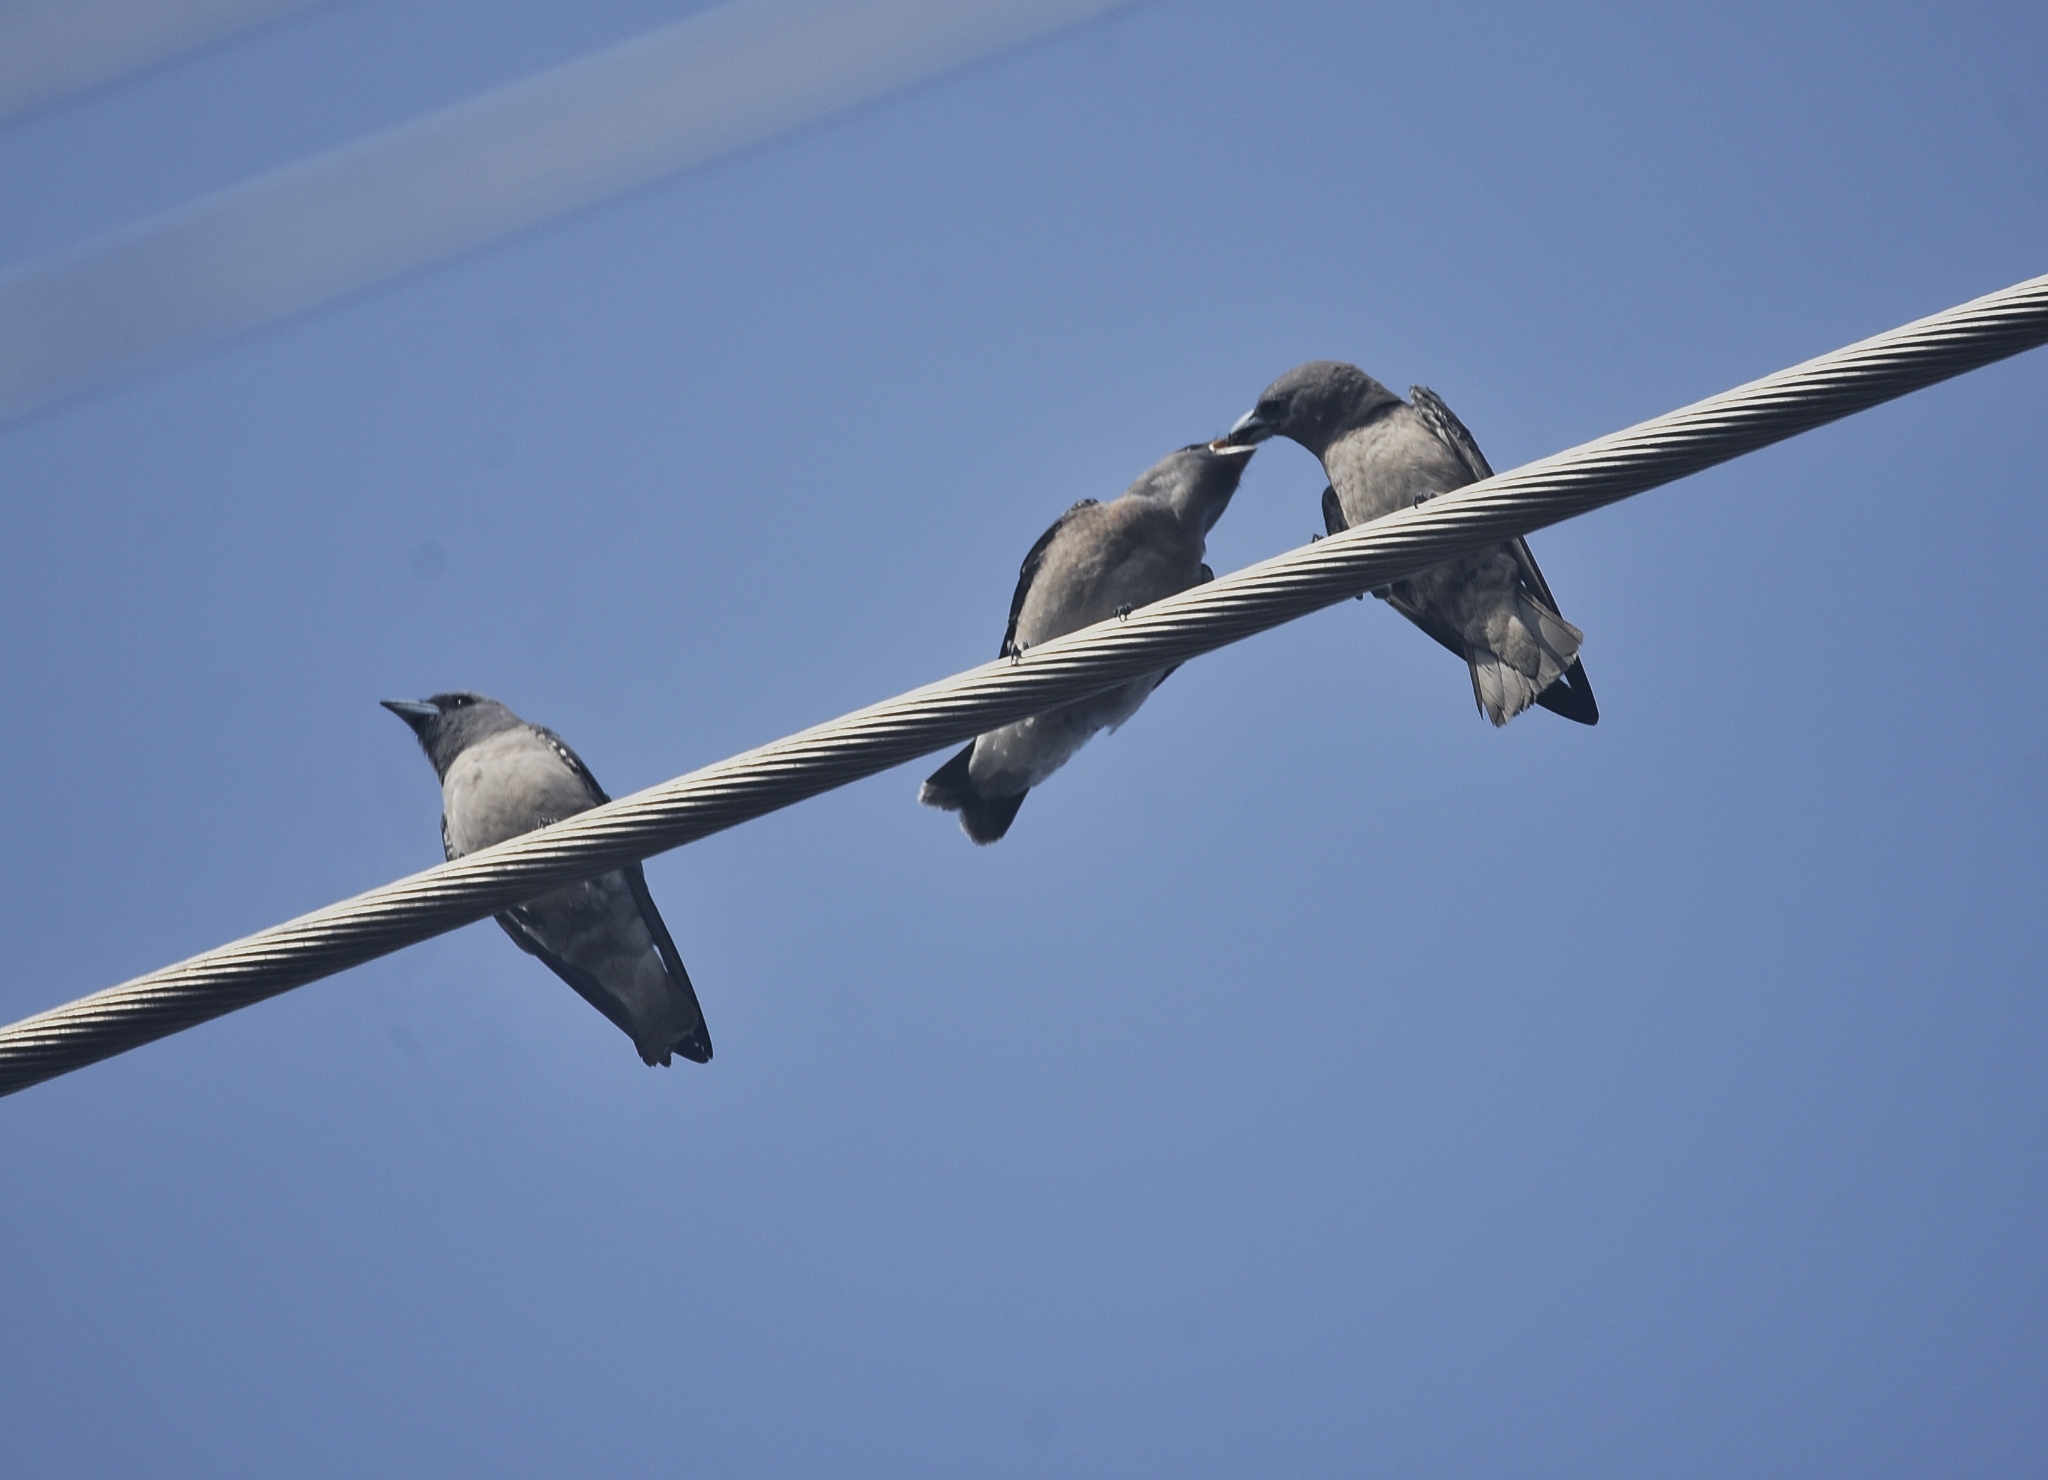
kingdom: Animalia
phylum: Chordata
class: Aves
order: Passeriformes
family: Artamidae
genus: Artamus
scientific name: Artamus fuscus
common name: Ashy woodswallow
